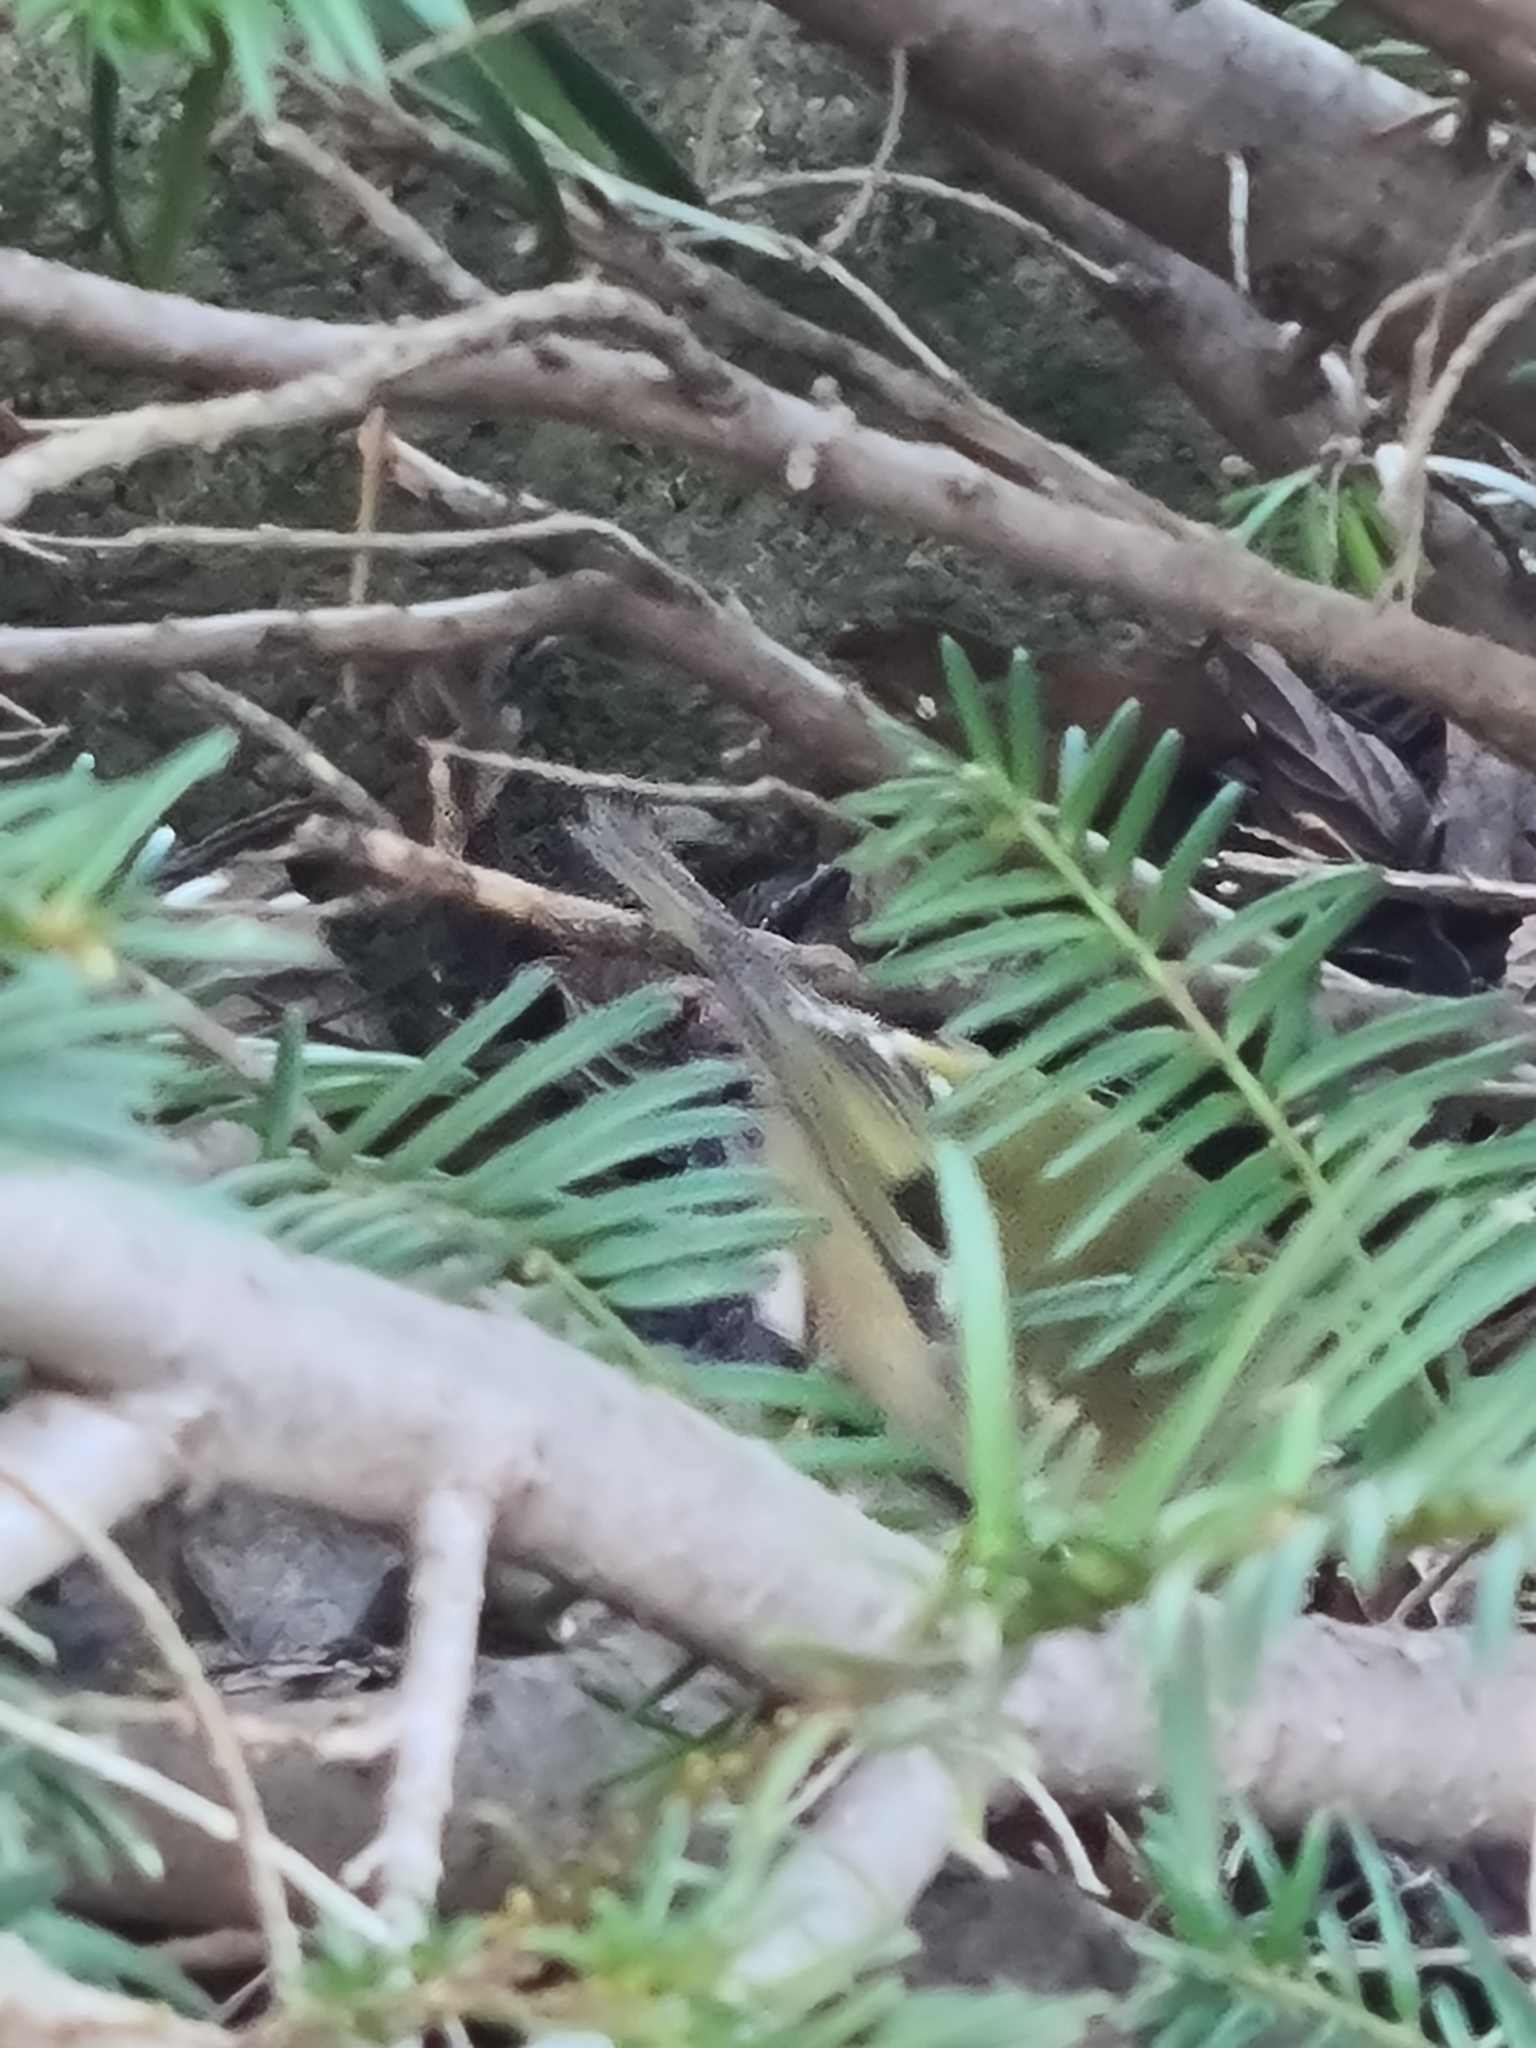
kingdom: Animalia
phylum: Chordata
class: Aves
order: Passeriformes
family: Regulidae
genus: Regulus
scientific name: Regulus regulus
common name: Goldcrest
